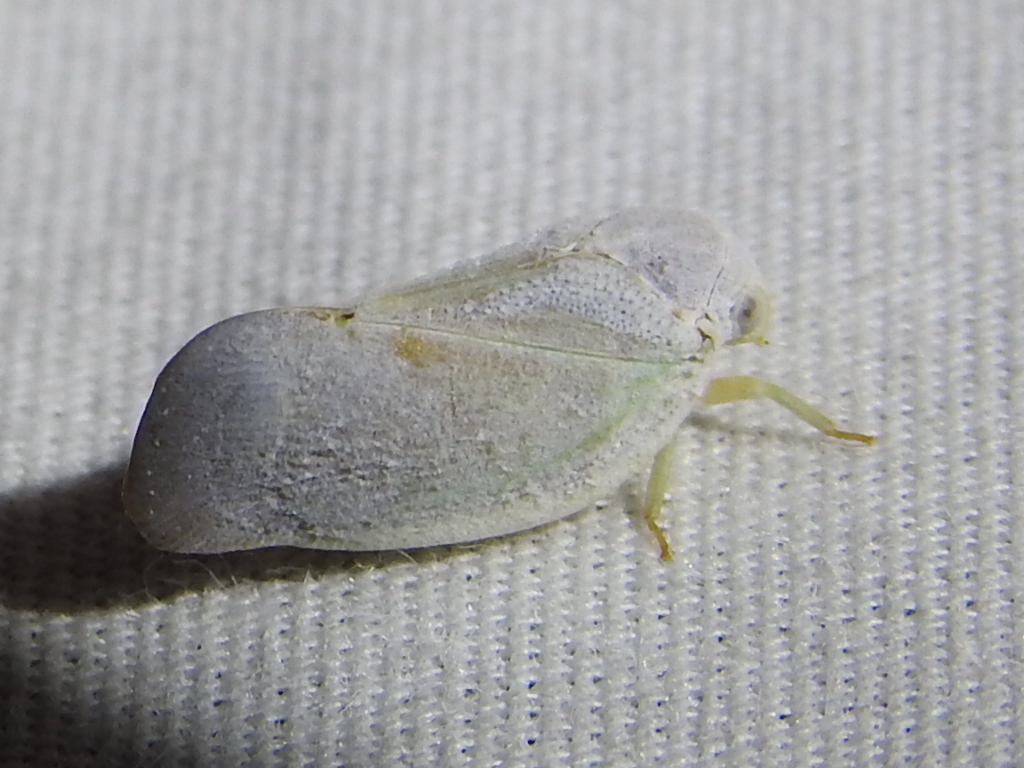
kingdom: Animalia
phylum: Arthropoda
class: Insecta
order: Hemiptera
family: Flatidae
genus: Flatormenis
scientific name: Flatormenis saucia
